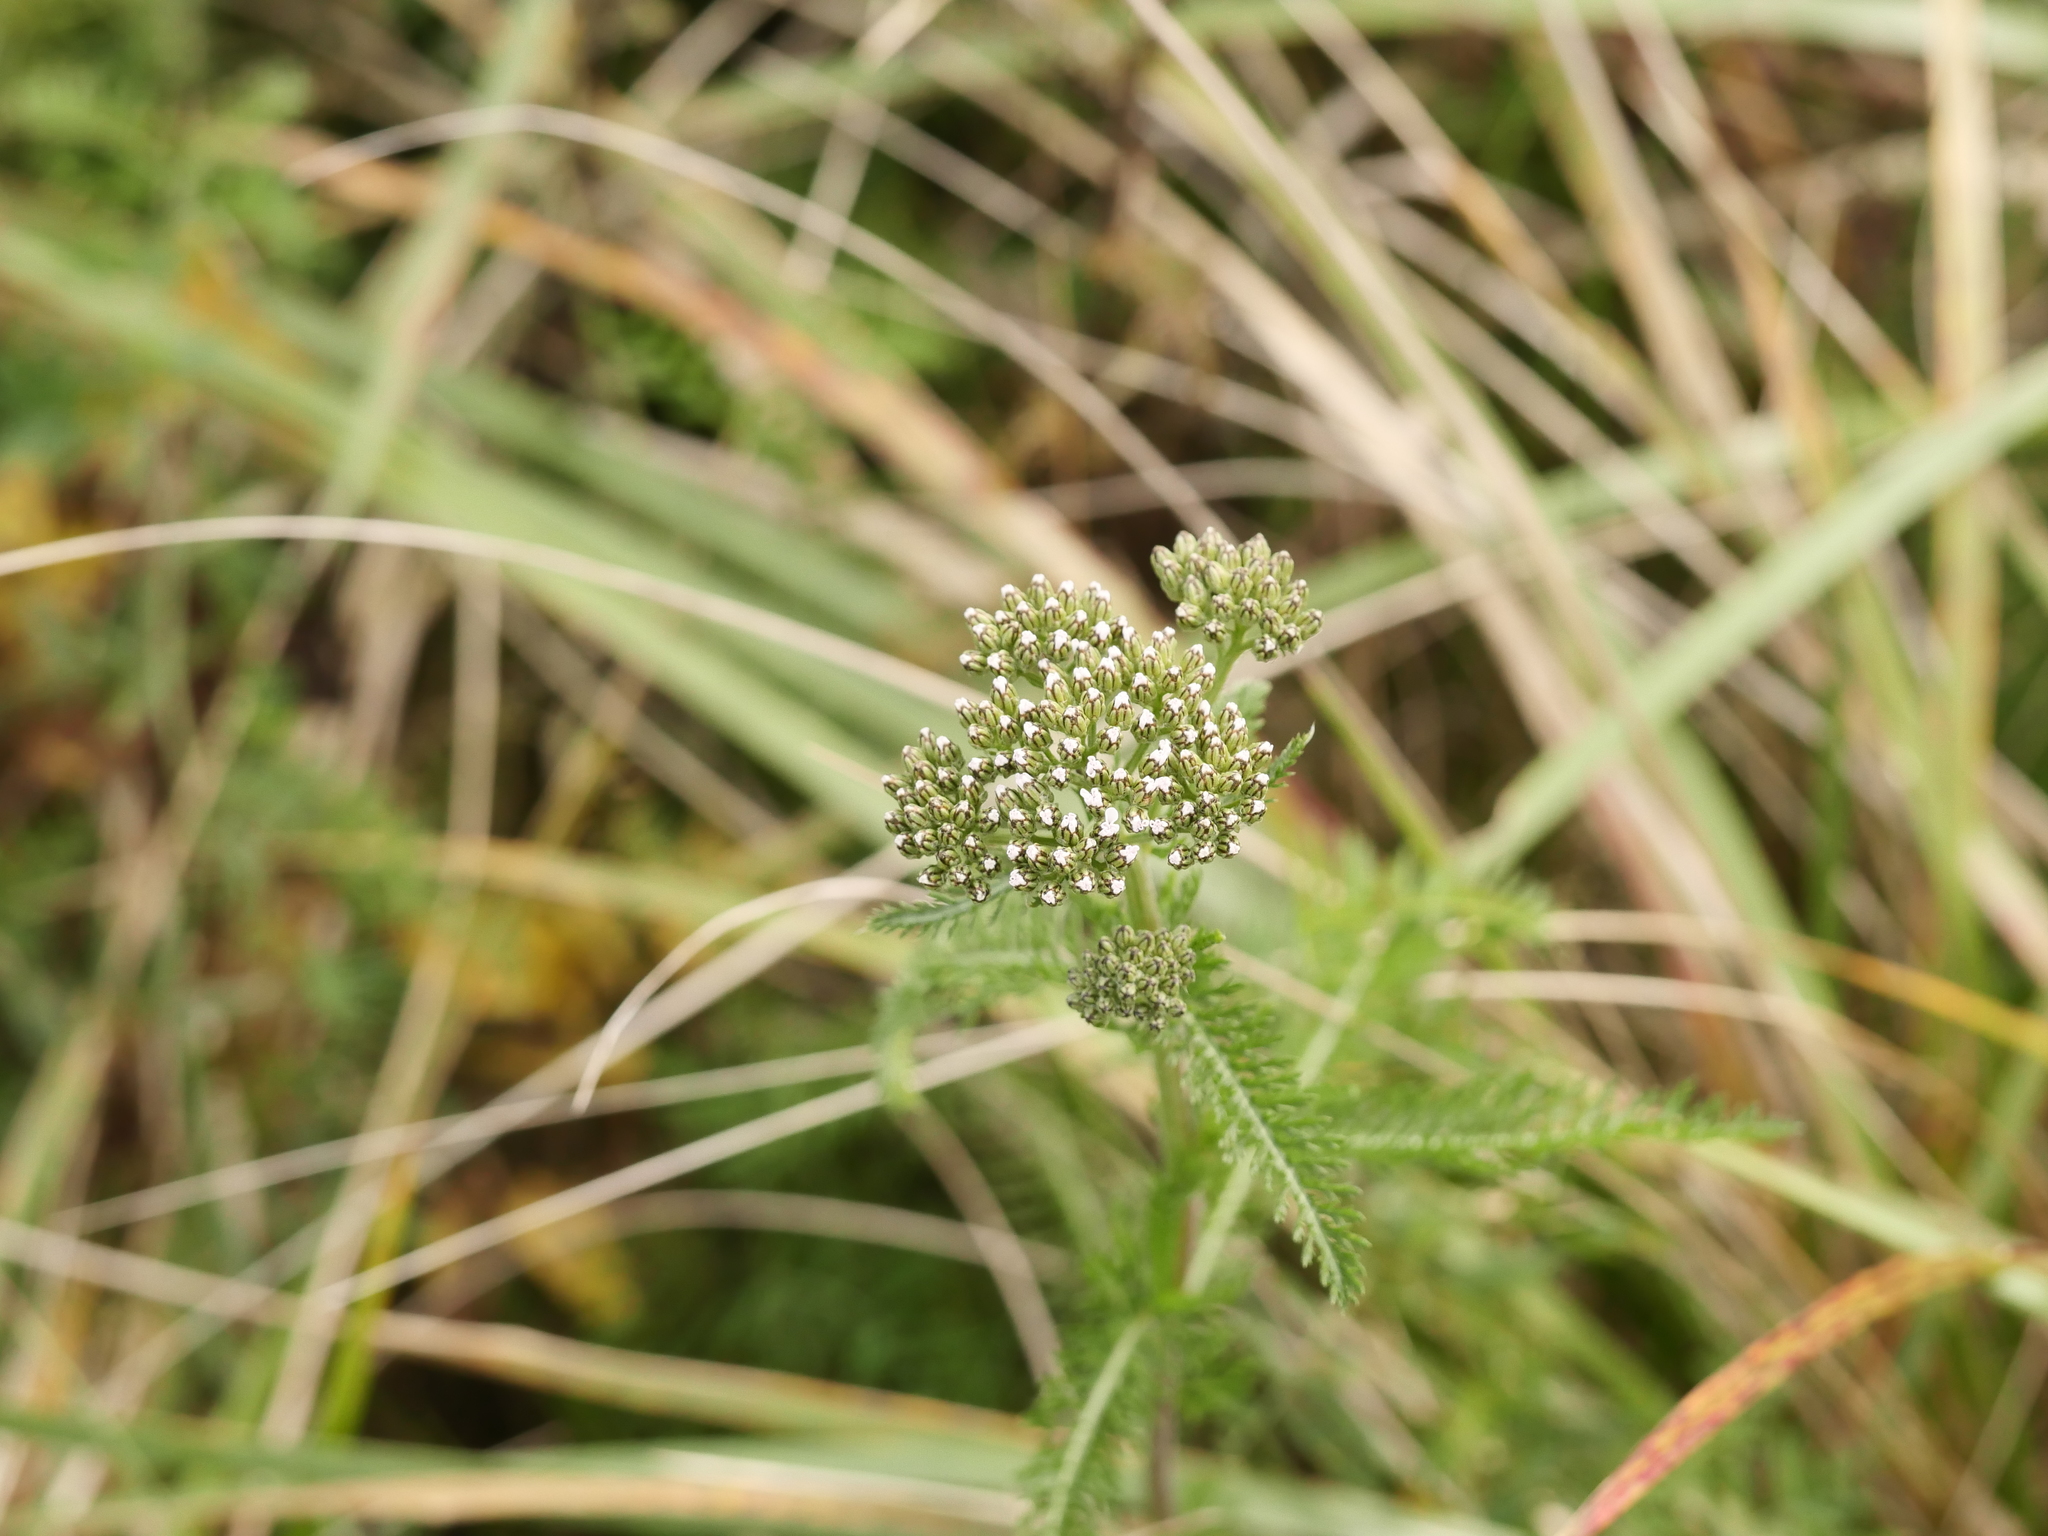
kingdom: Plantae
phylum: Tracheophyta
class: Magnoliopsida
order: Asterales
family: Asteraceae
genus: Achillea
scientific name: Achillea millefolium
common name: Yarrow
